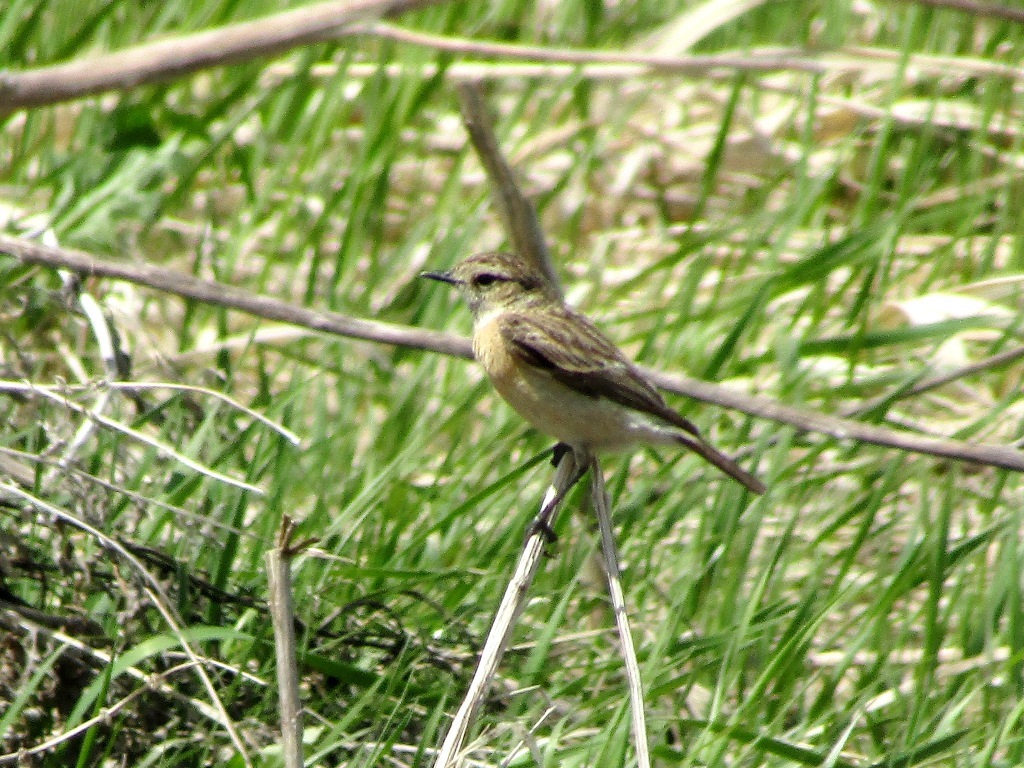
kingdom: Animalia
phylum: Chordata
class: Aves
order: Passeriformes
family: Muscicapidae
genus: Saxicola
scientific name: Saxicola maurus
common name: Siberian stonechat
